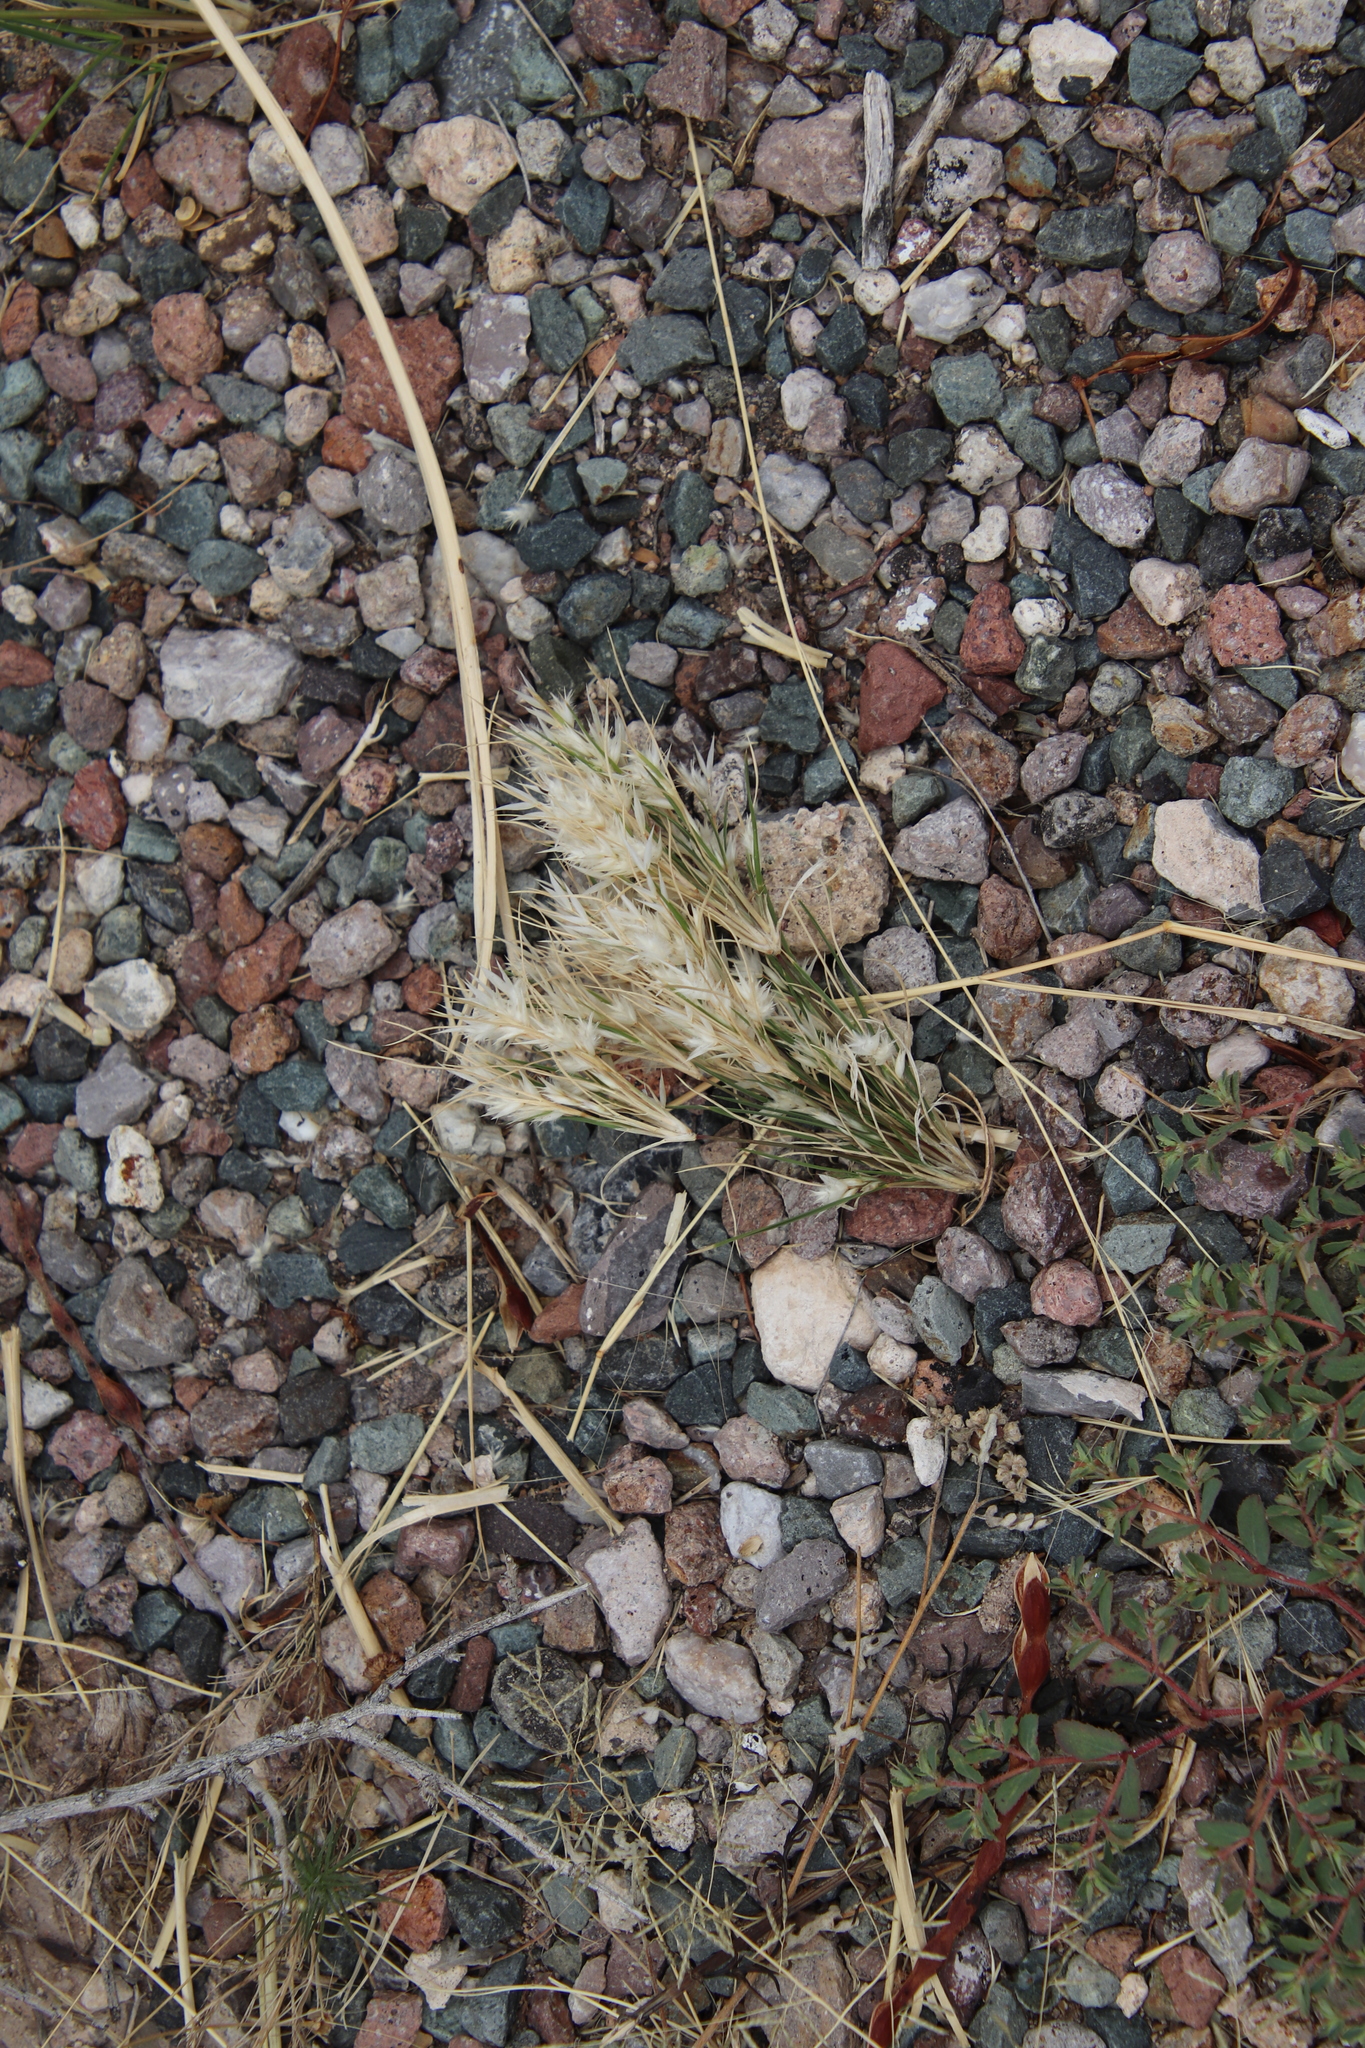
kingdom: Plantae
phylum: Tracheophyta
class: Liliopsida
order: Poales
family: Poaceae
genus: Dasyochloa
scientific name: Dasyochloa pulchella
